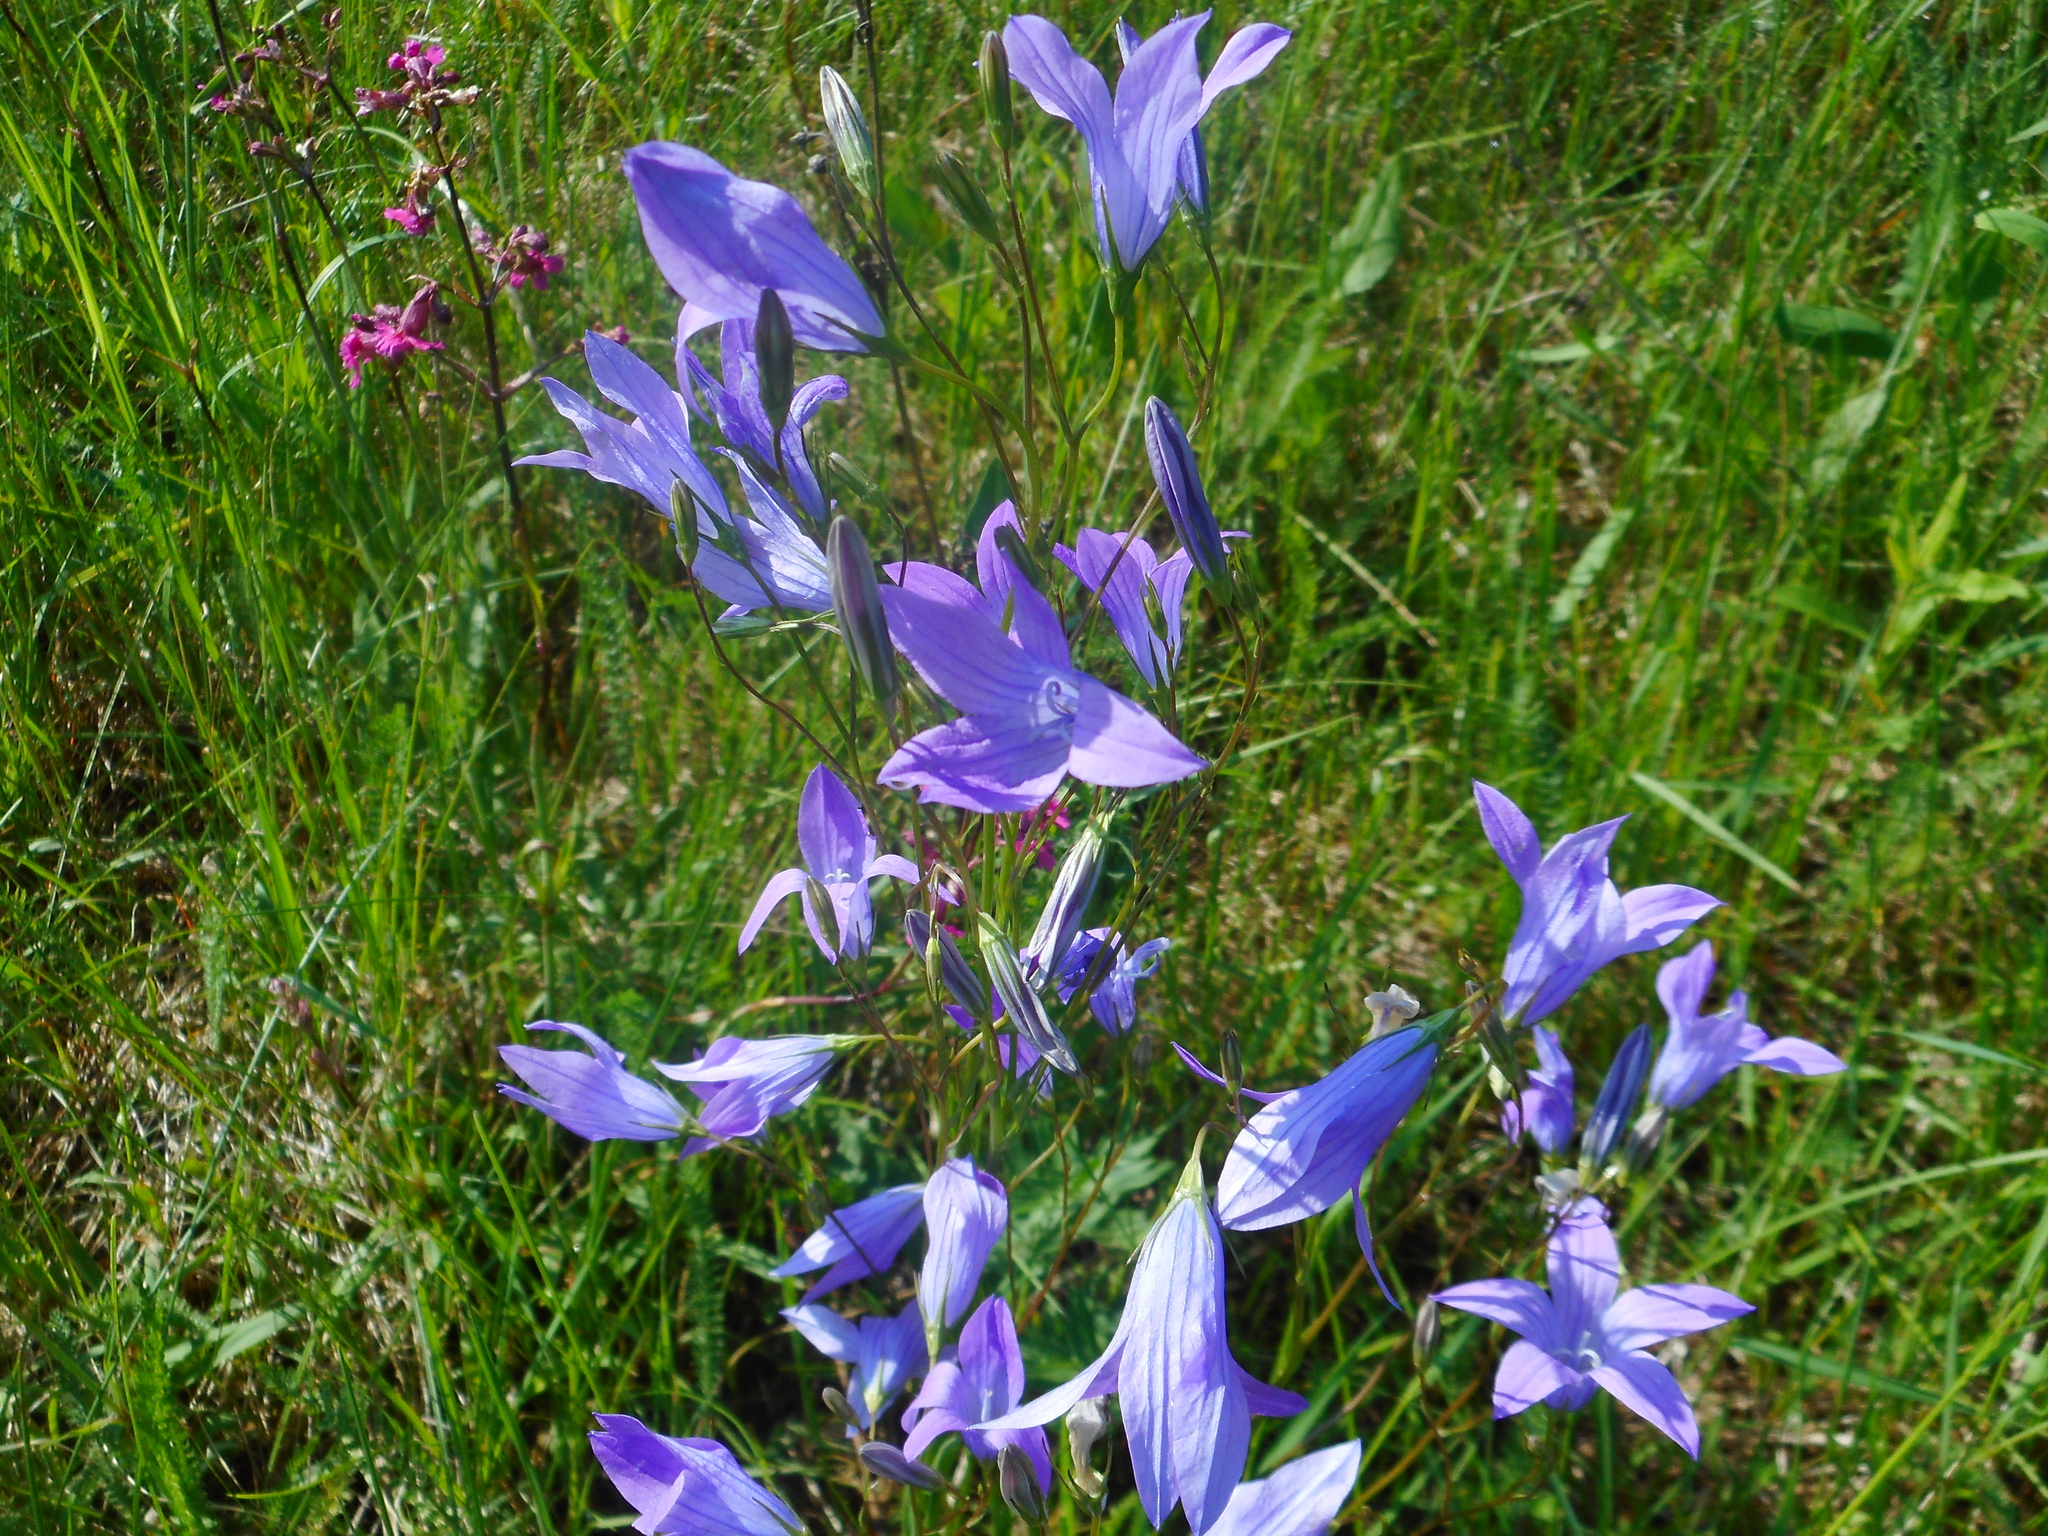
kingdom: Plantae
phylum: Tracheophyta
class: Magnoliopsida
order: Asterales
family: Campanulaceae
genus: Campanula
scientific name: Campanula patula
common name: Spreading bellflower
